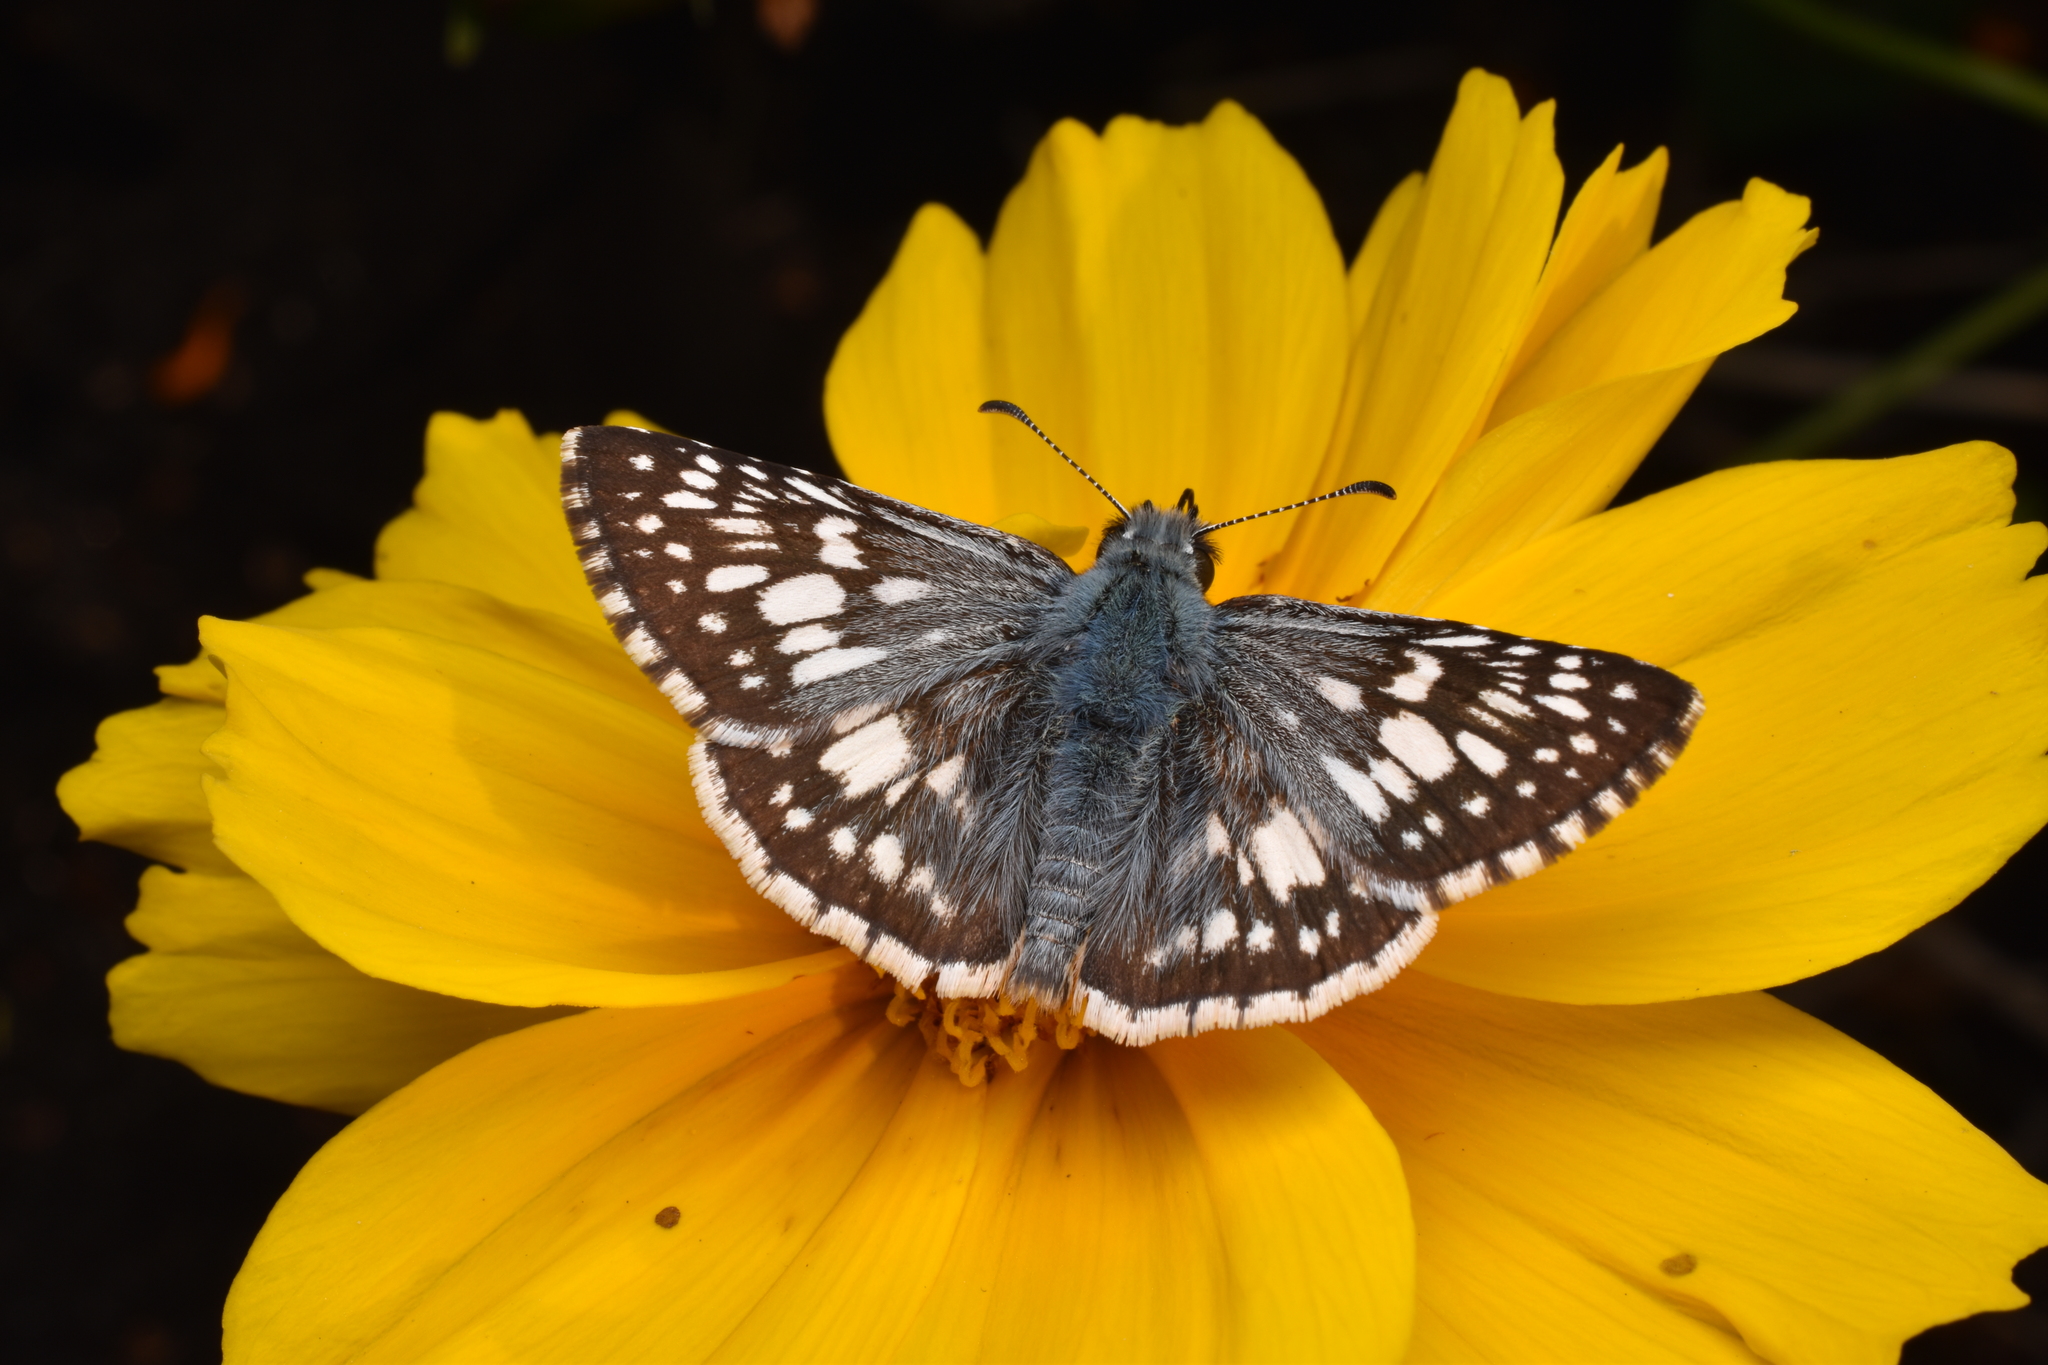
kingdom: Animalia
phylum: Arthropoda
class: Insecta
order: Lepidoptera
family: Hesperiidae
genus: Burnsius
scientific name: Burnsius communis
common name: Common checkered-skipper
